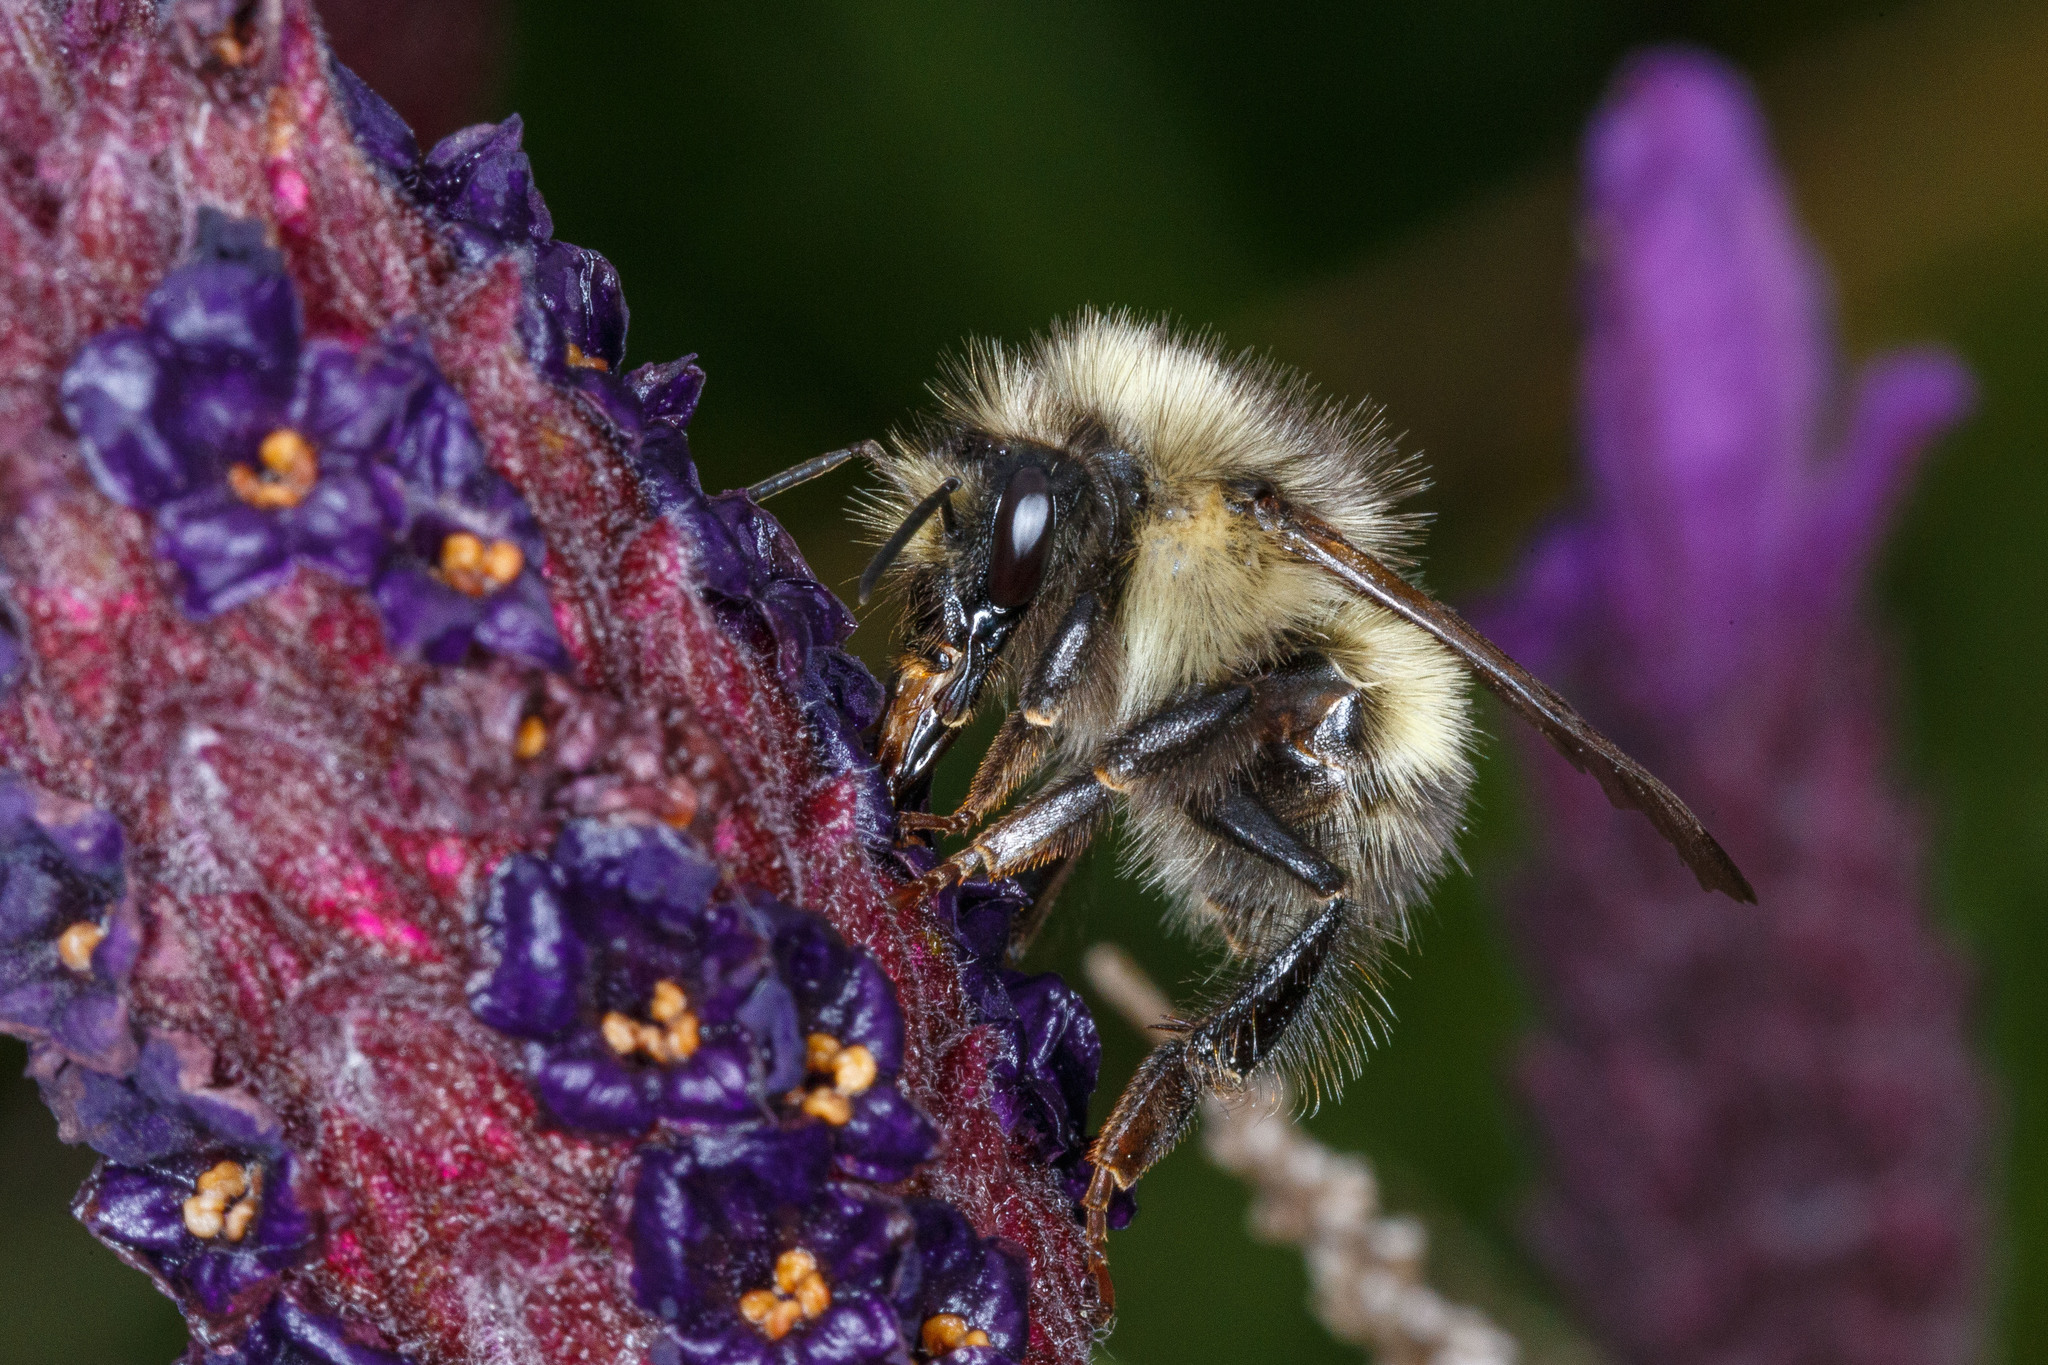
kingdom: Animalia
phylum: Arthropoda
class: Insecta
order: Hymenoptera
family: Apidae
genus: Bombus
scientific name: Bombus flavifrons
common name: Yellow head bumble bee
